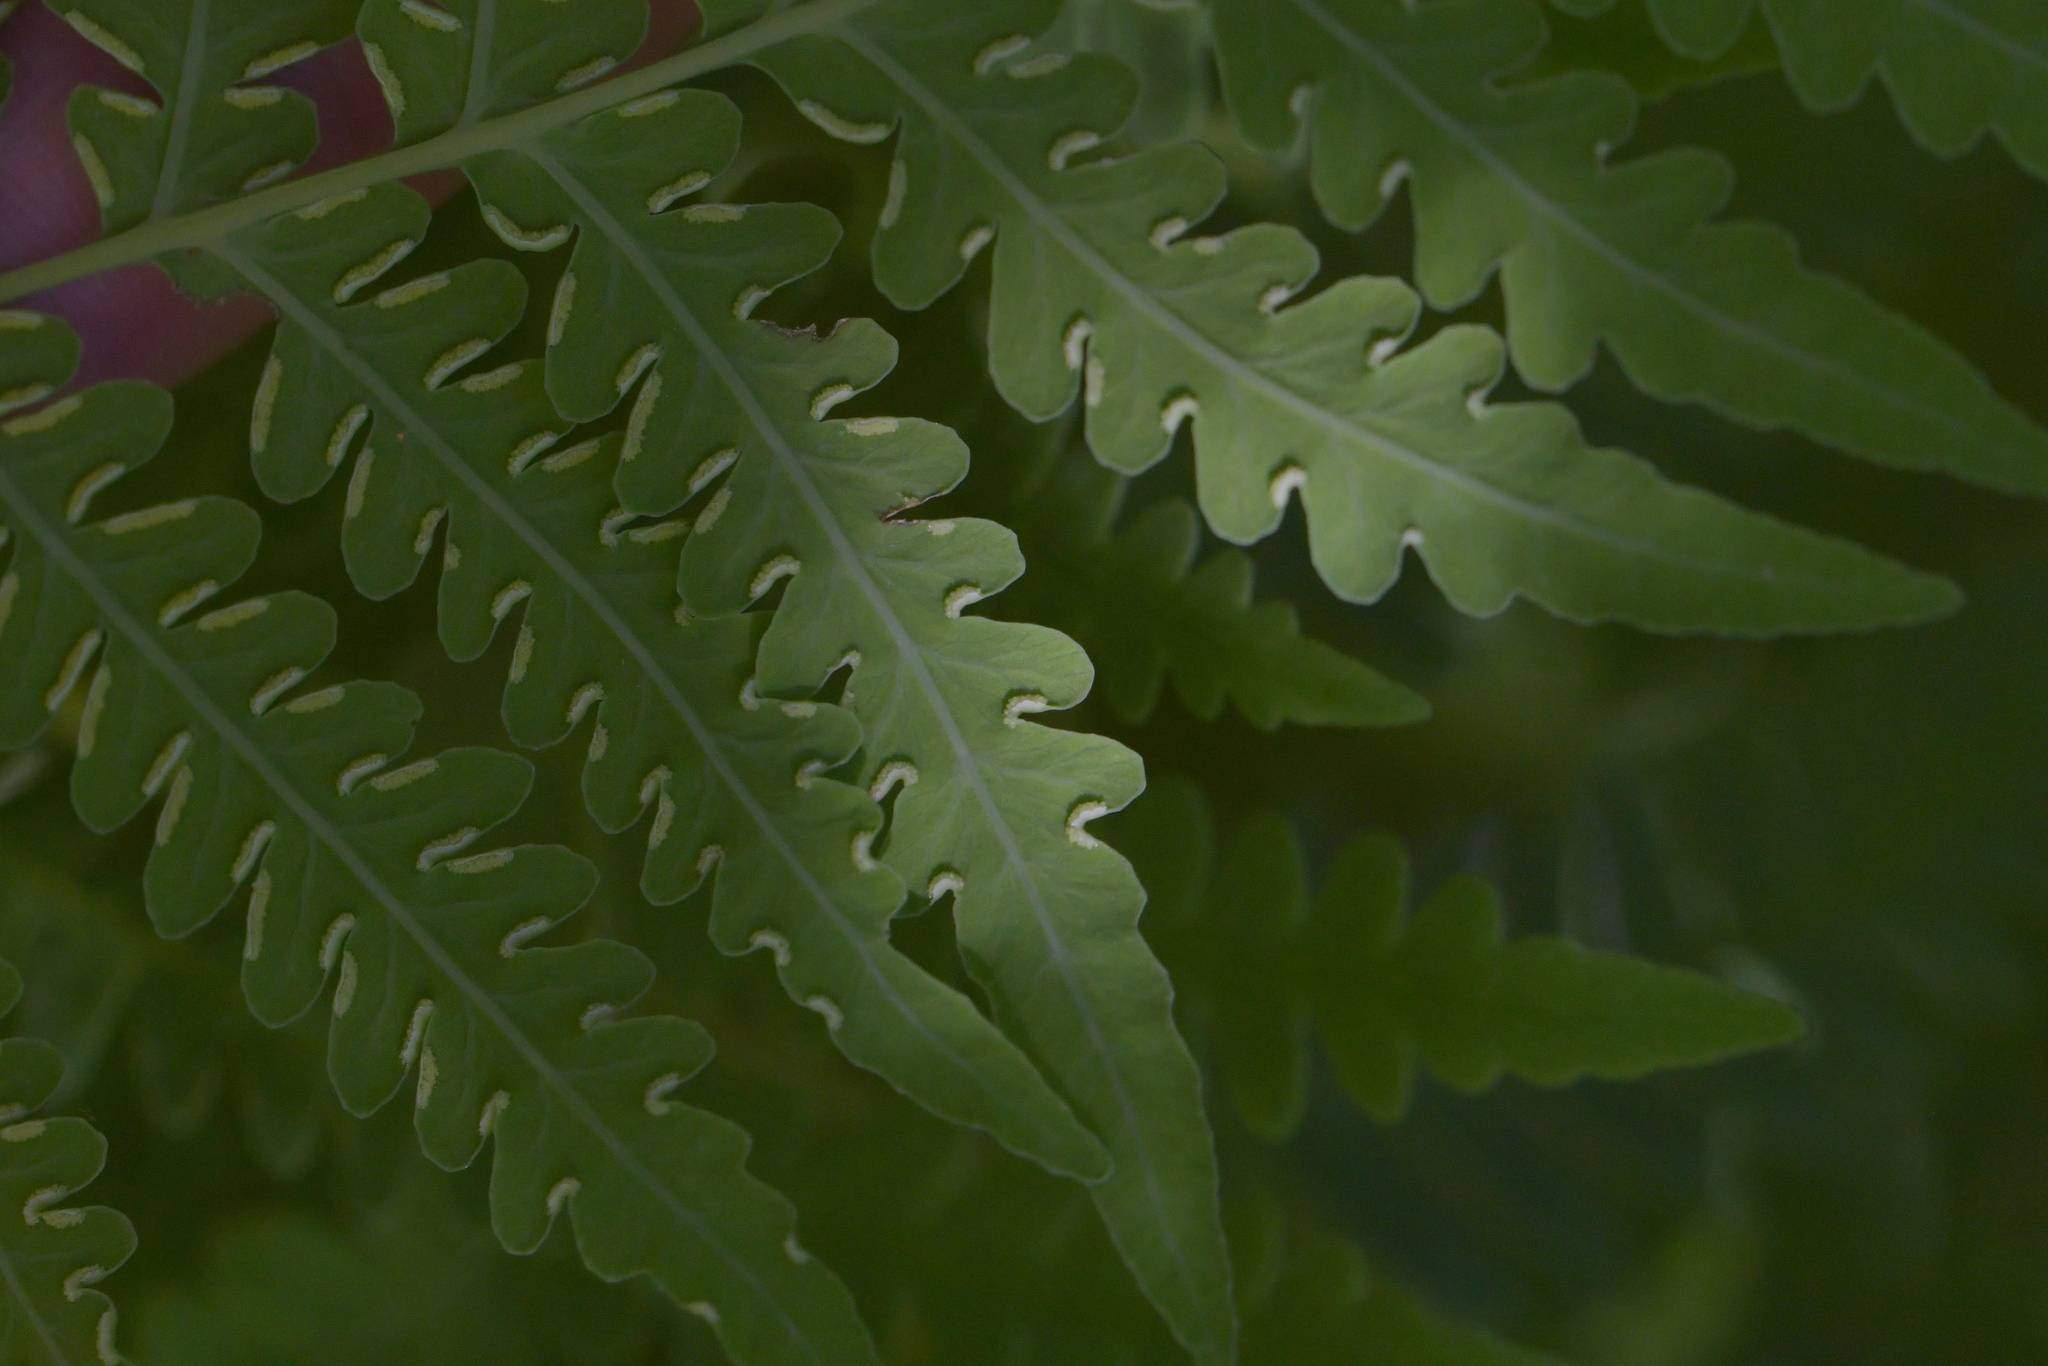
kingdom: Plantae
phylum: Tracheophyta
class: Polypodiopsida
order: Polypodiales
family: Dennstaedtiaceae
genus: Histiopteris
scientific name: Histiopteris incisa
